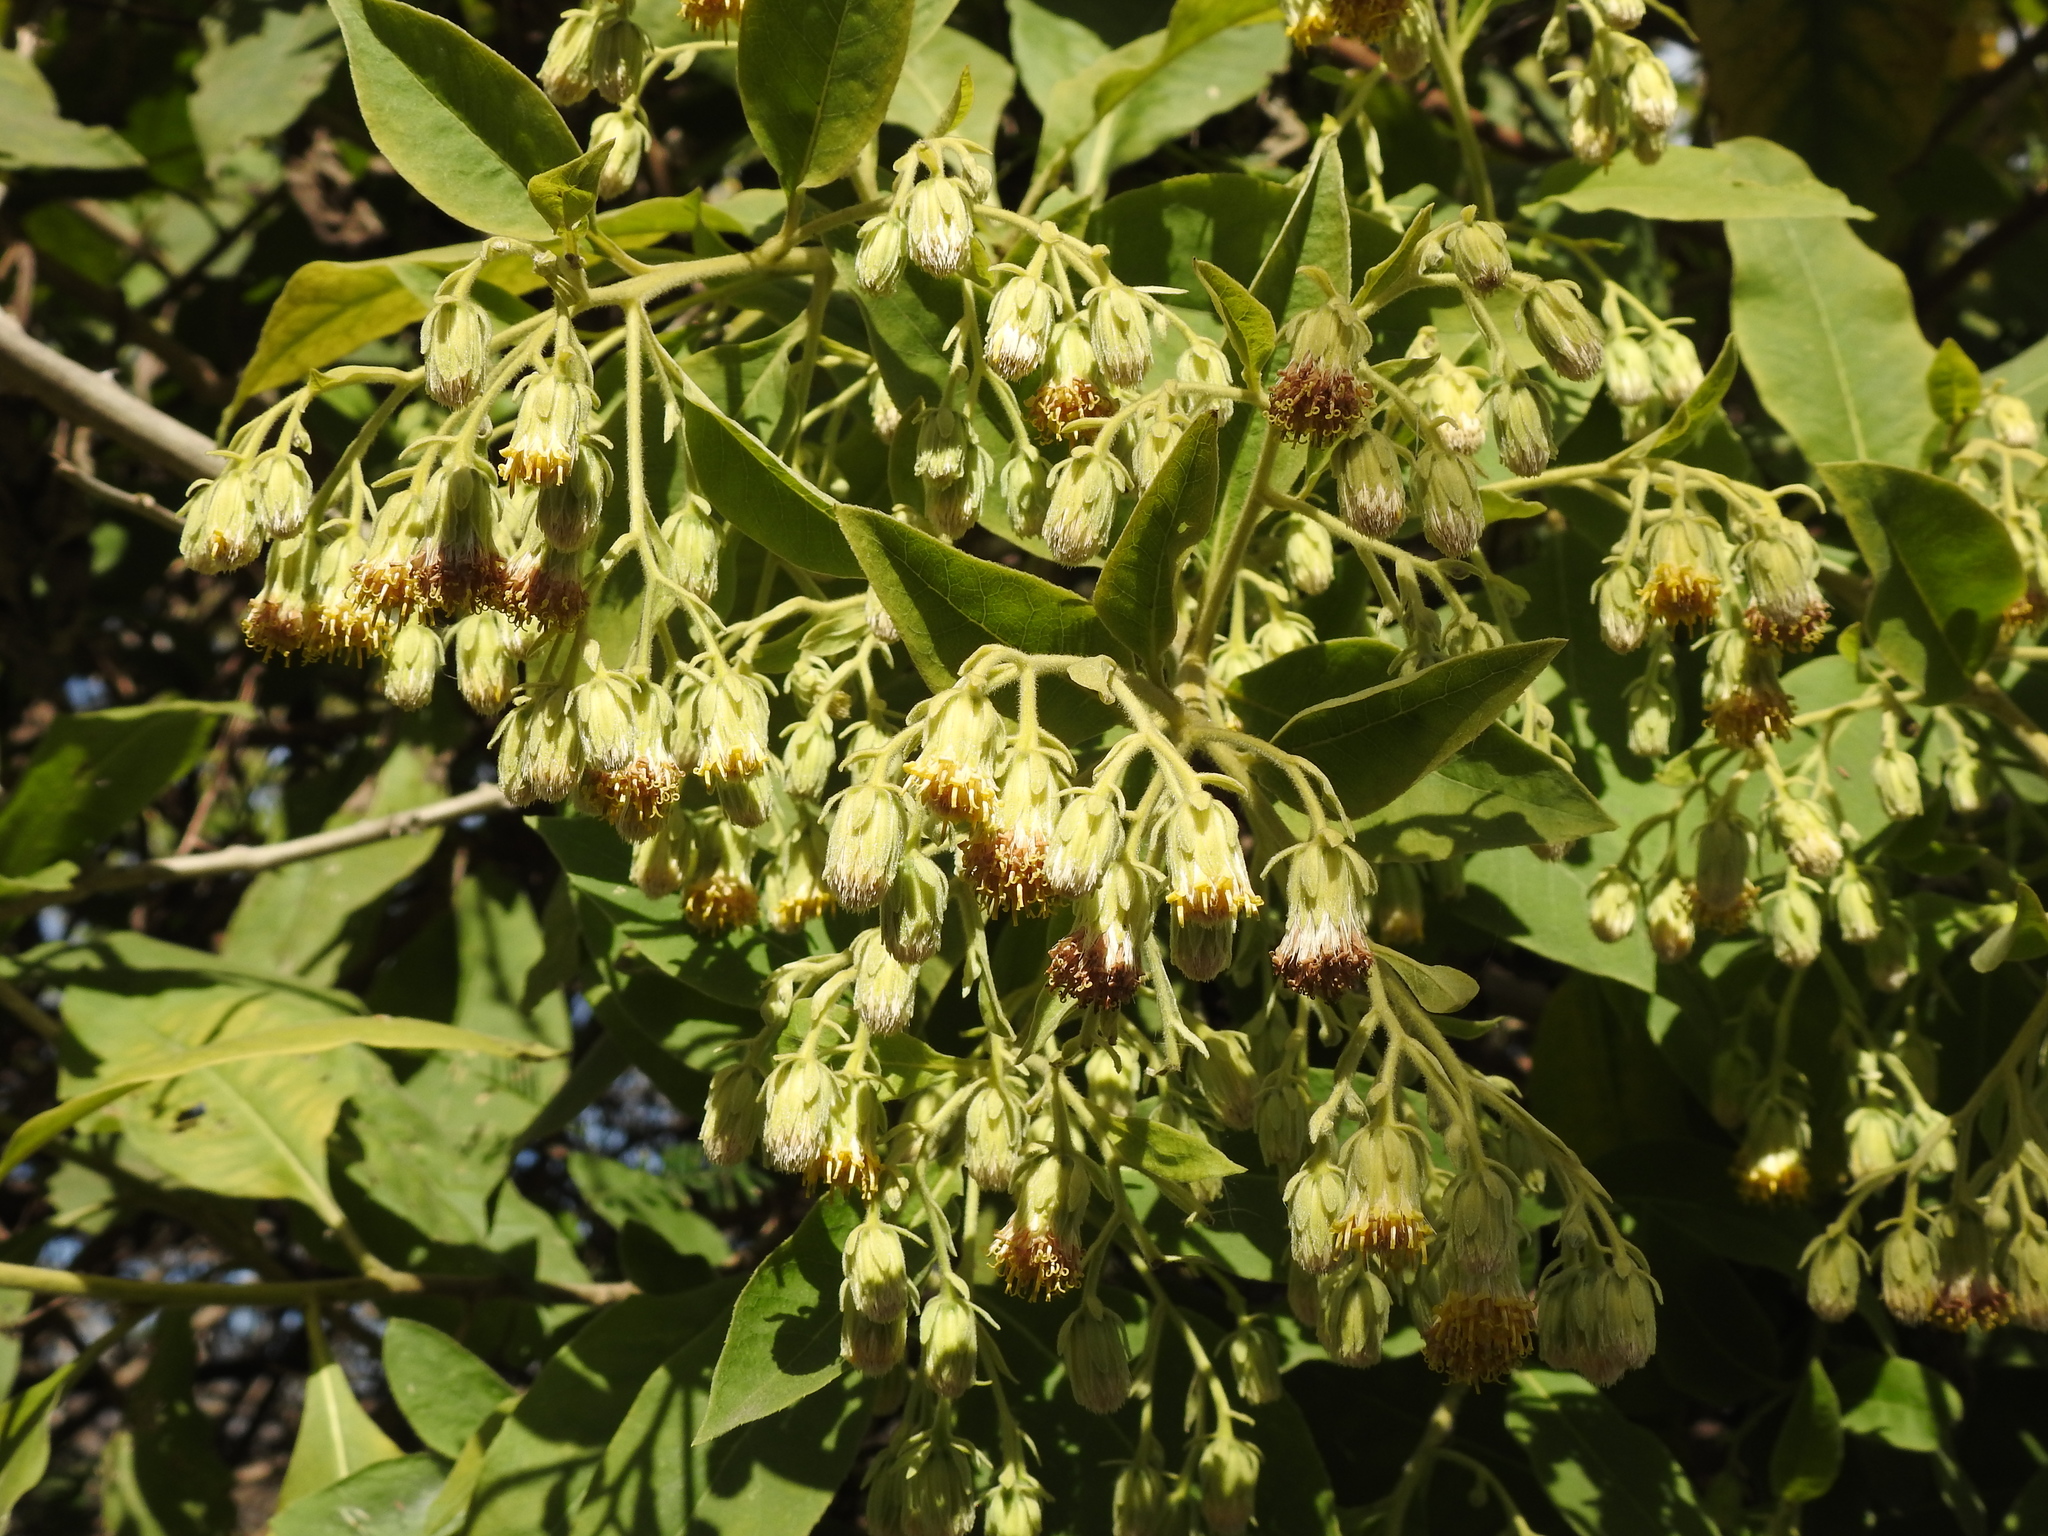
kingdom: Plantae
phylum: Tracheophyta
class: Magnoliopsida
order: Asterales
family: Asteraceae
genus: Trixis
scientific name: Trixis praestans
